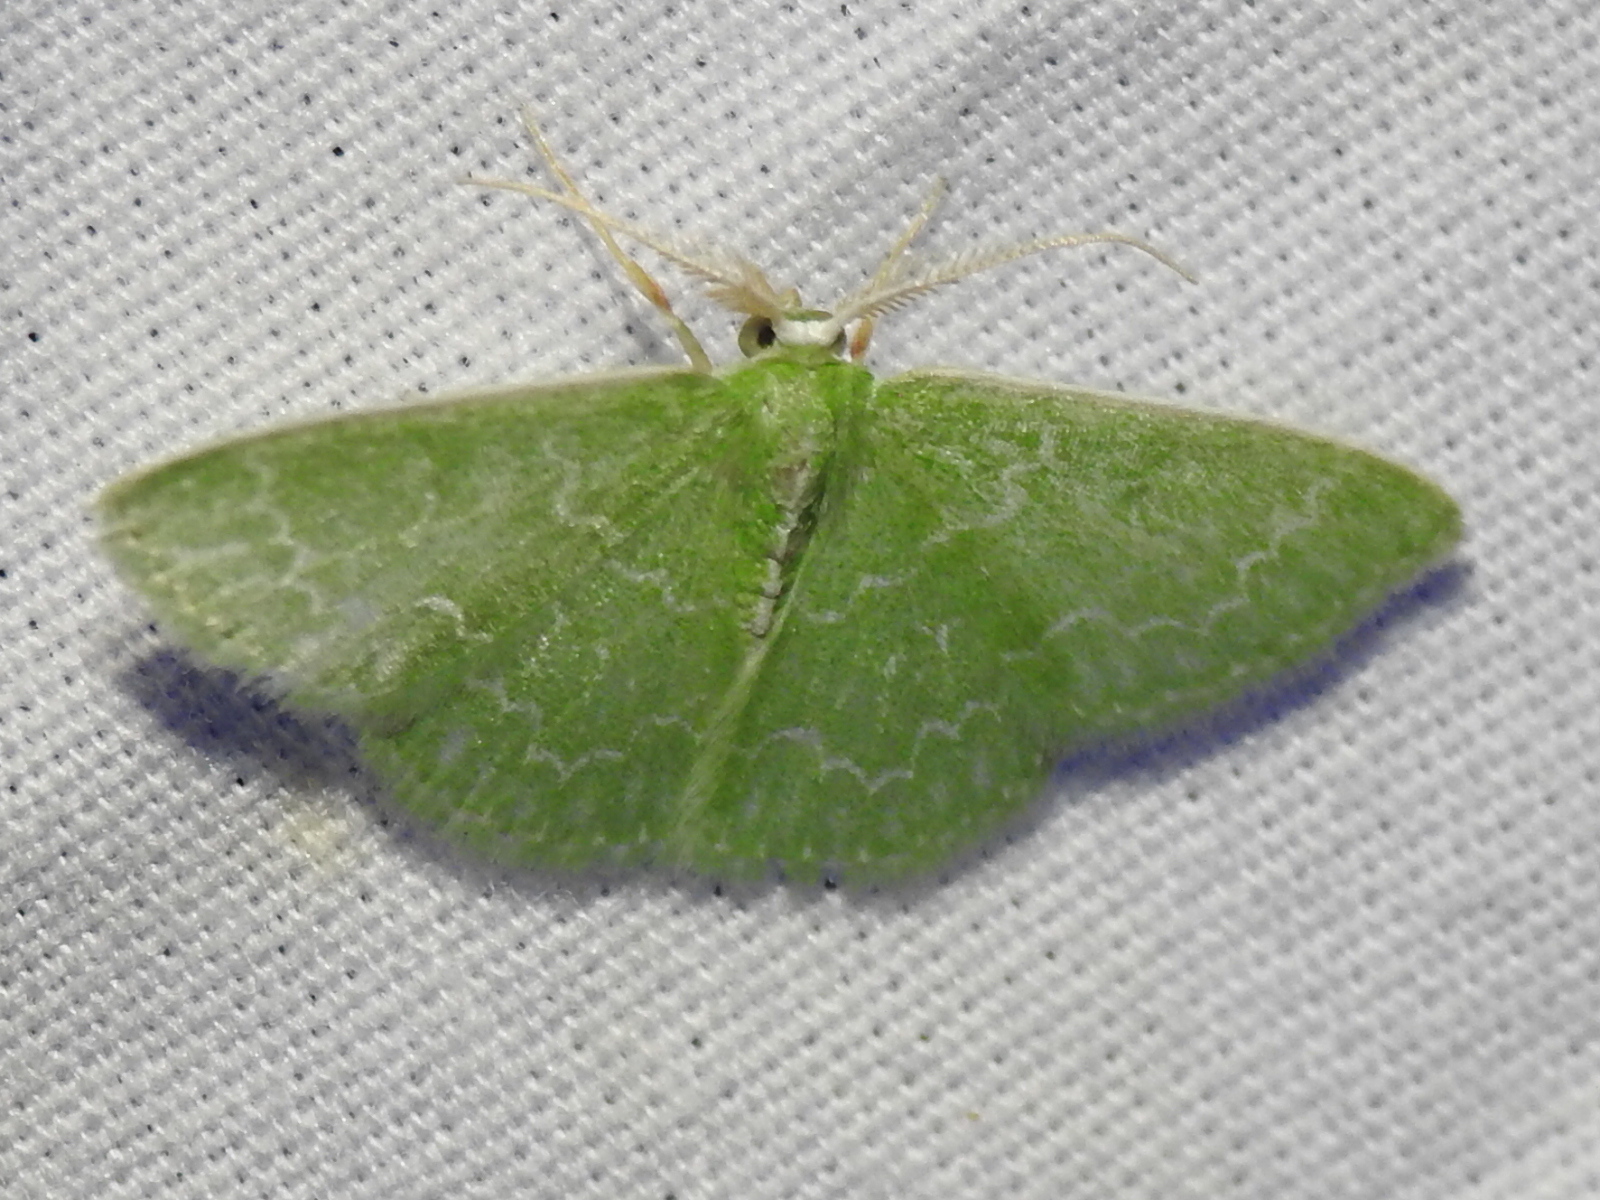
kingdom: Animalia
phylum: Arthropoda
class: Insecta
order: Lepidoptera
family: Geometridae
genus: Synchlora
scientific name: Synchlora frondaria
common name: Southern emerald
